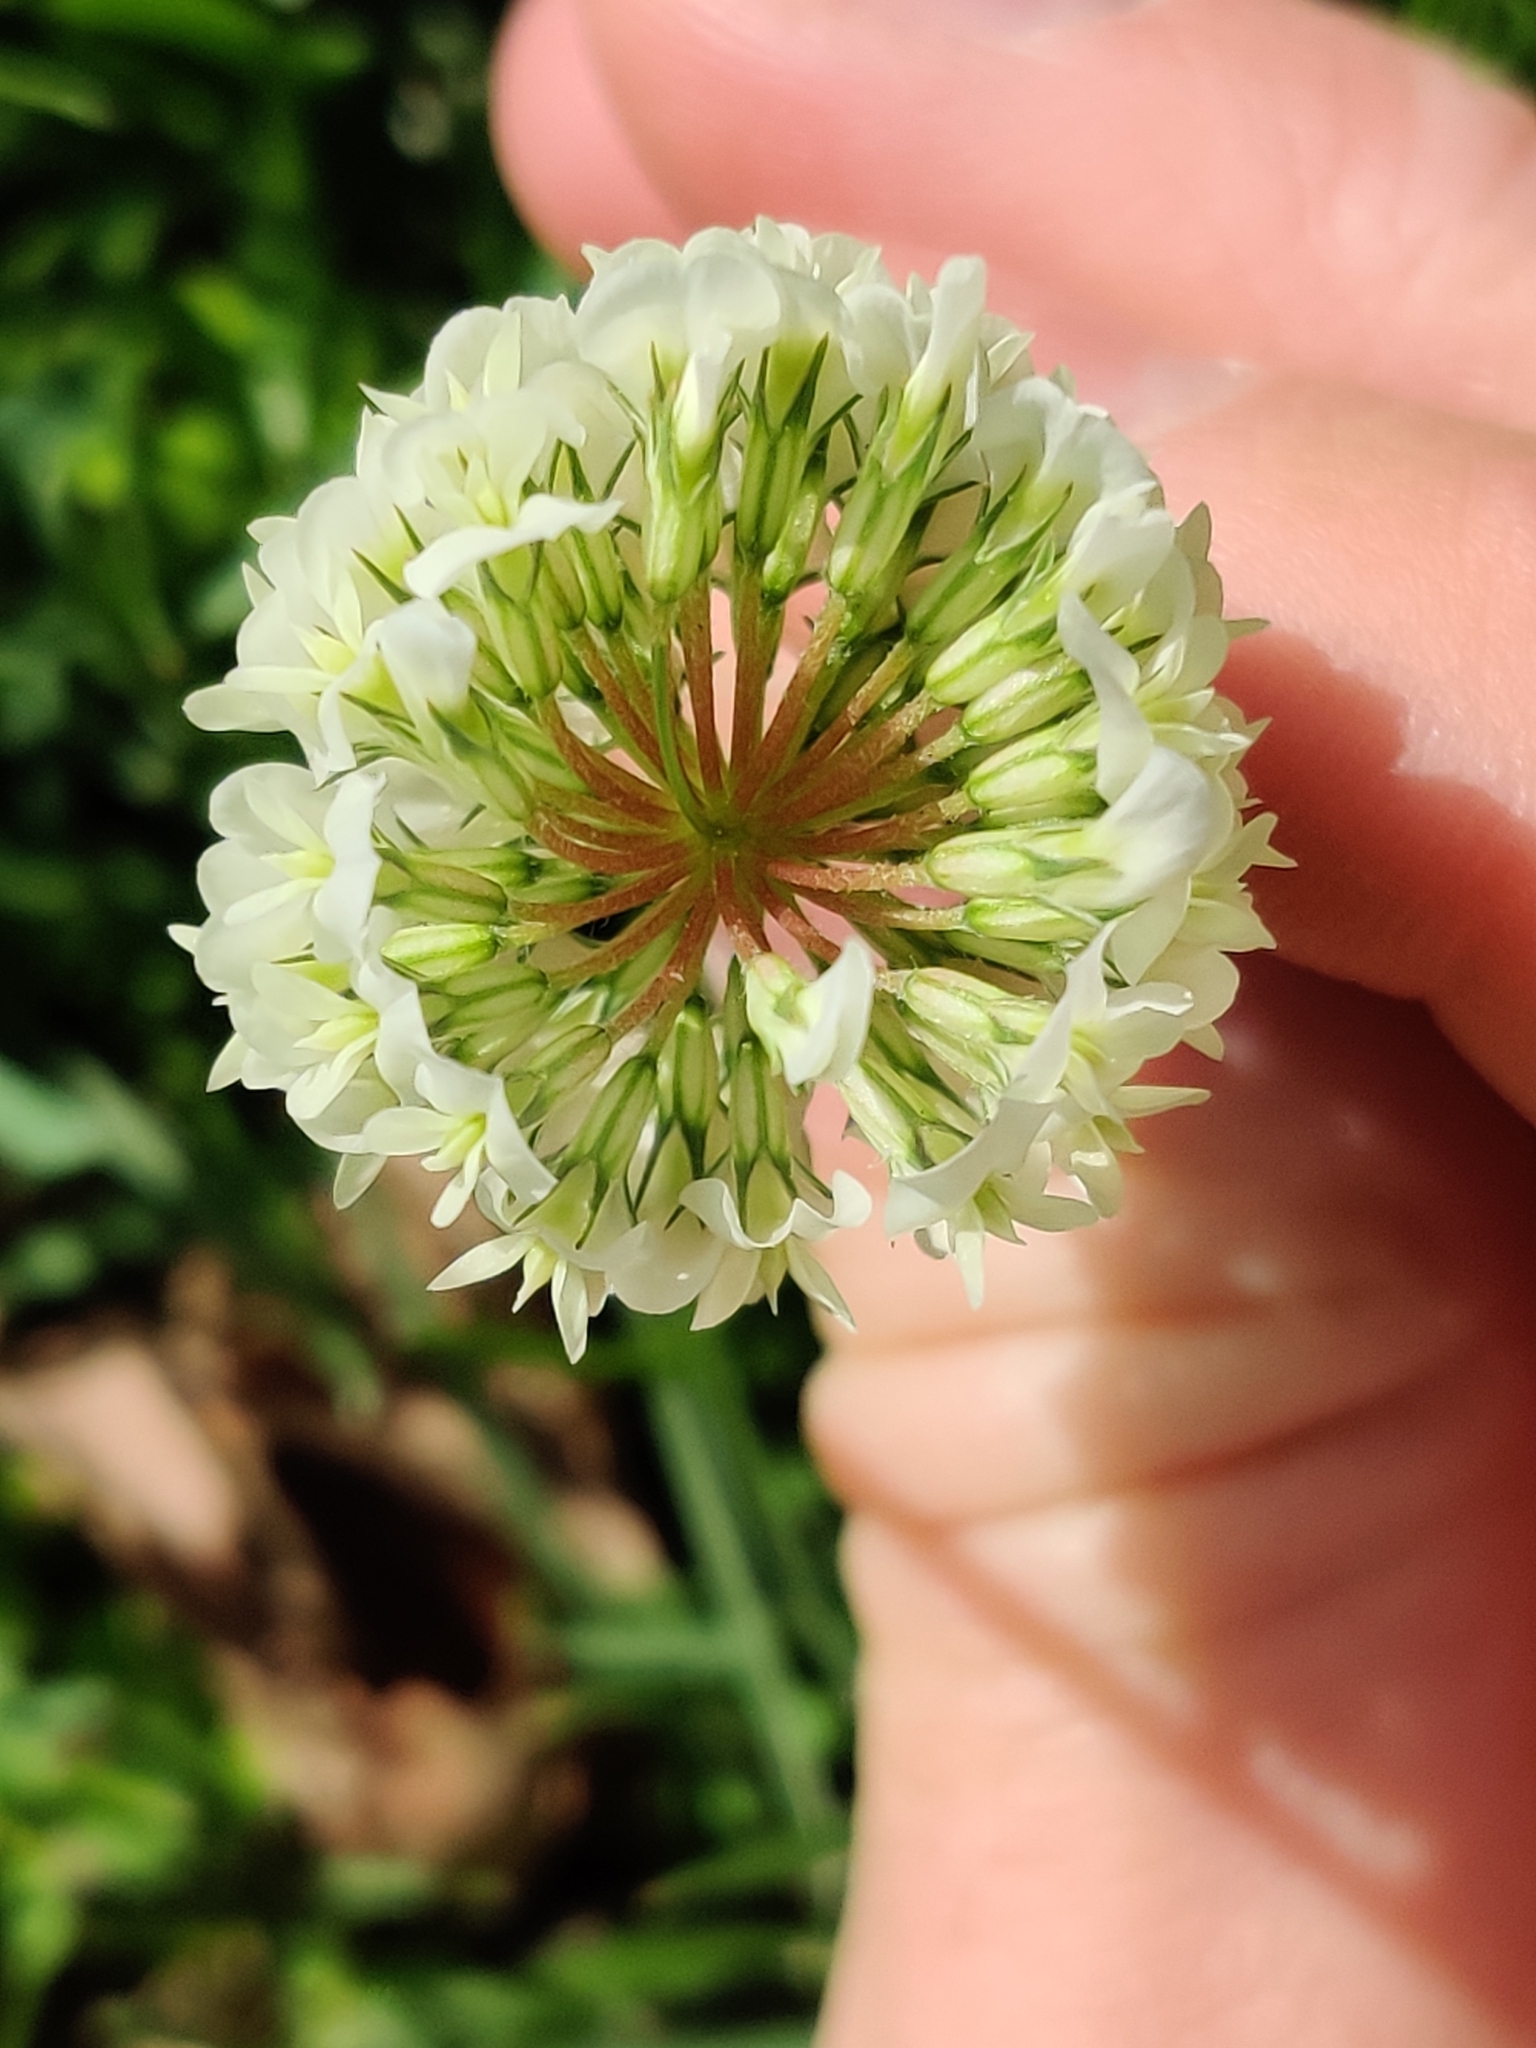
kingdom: Plantae
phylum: Tracheophyta
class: Magnoliopsida
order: Fabales
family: Fabaceae
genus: Trifolium
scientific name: Trifolium repens
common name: White clover
